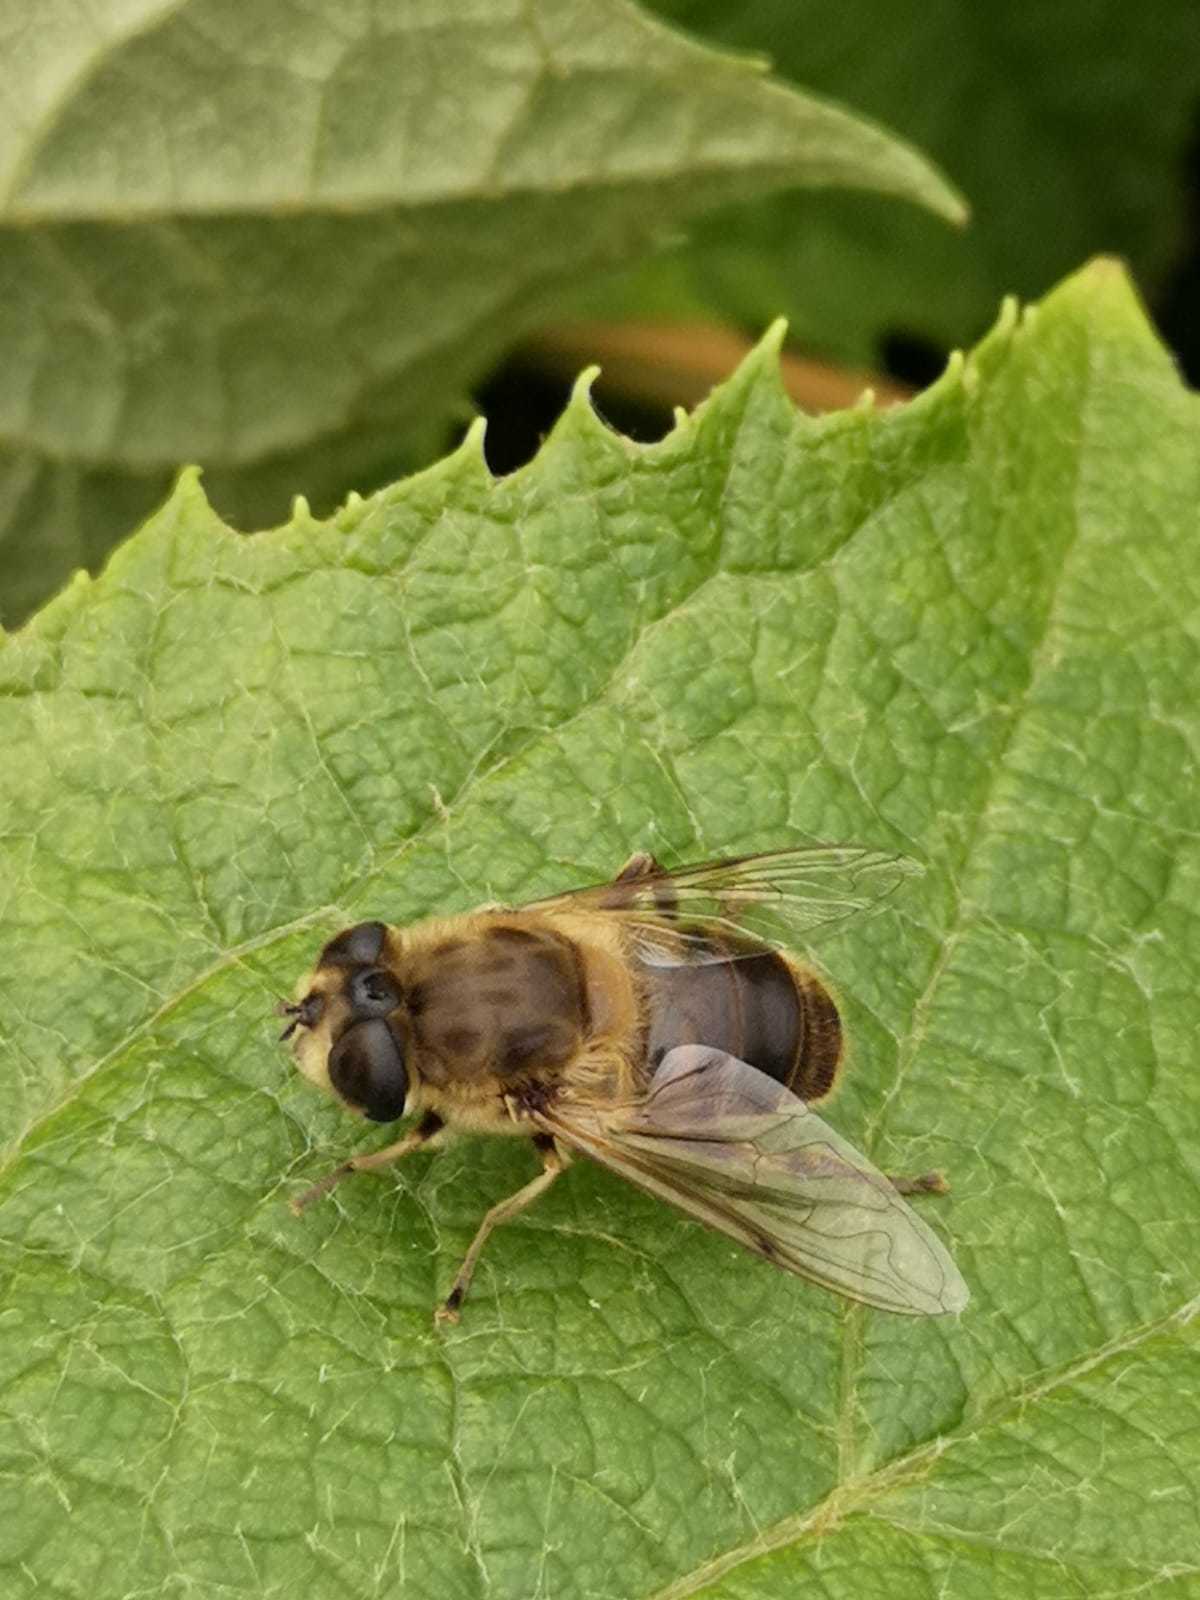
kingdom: Animalia
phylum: Arthropoda
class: Insecta
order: Diptera
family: Syrphidae
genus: Eristalis
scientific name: Eristalis tenax
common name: Drone fly
